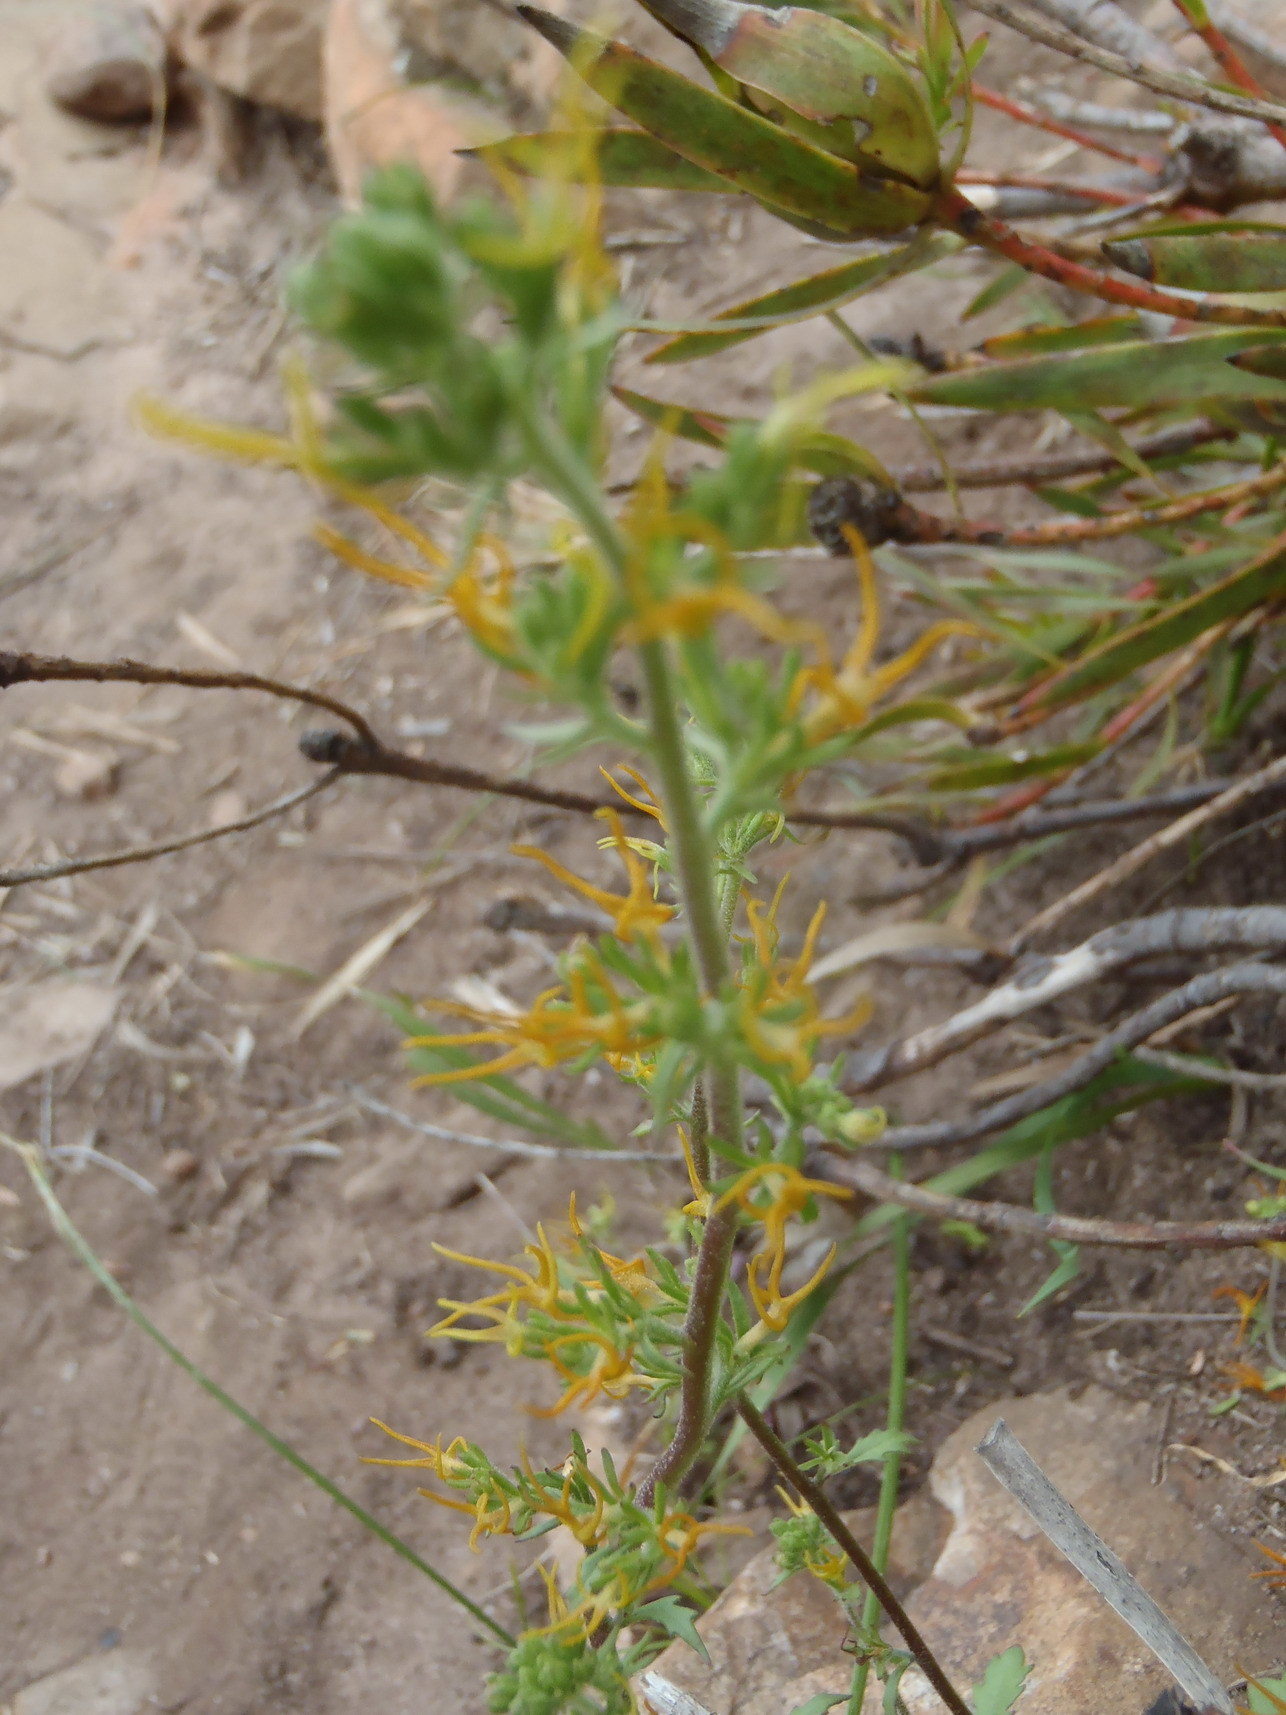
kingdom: Plantae
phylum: Tracheophyta
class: Magnoliopsida
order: Lamiales
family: Scrophulariaceae
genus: Manulea
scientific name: Manulea cheiranthus
